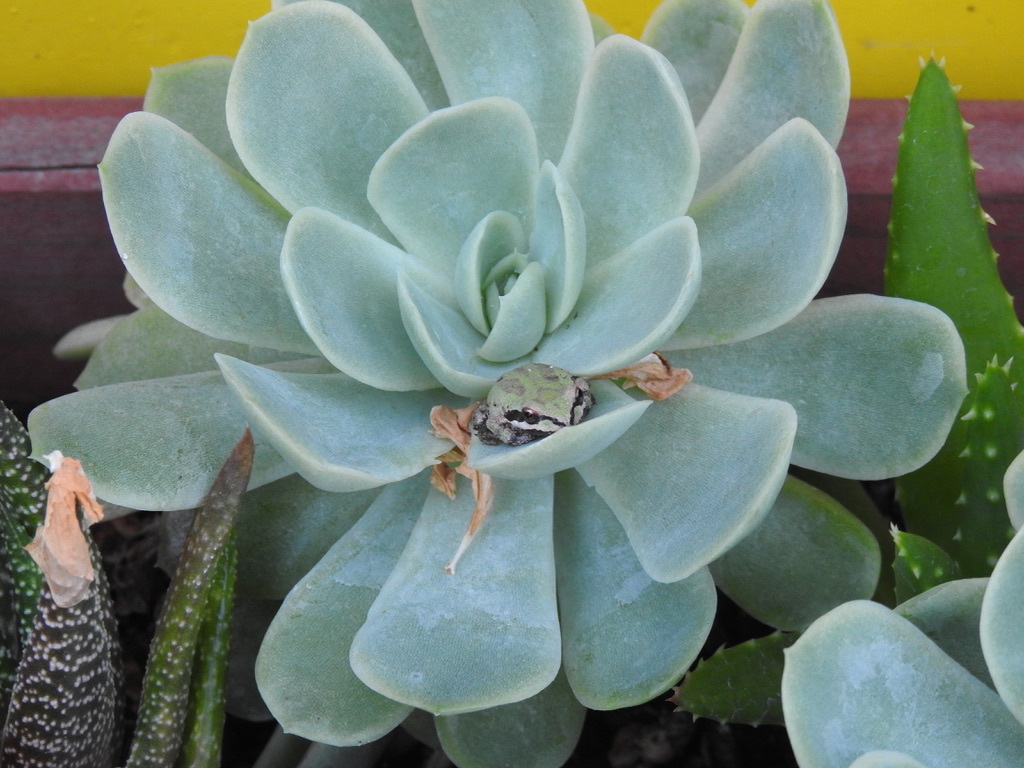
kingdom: Animalia
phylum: Chordata
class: Amphibia
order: Anura
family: Hylidae
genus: Pseudacris
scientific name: Pseudacris regilla
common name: Pacific chorus frog
